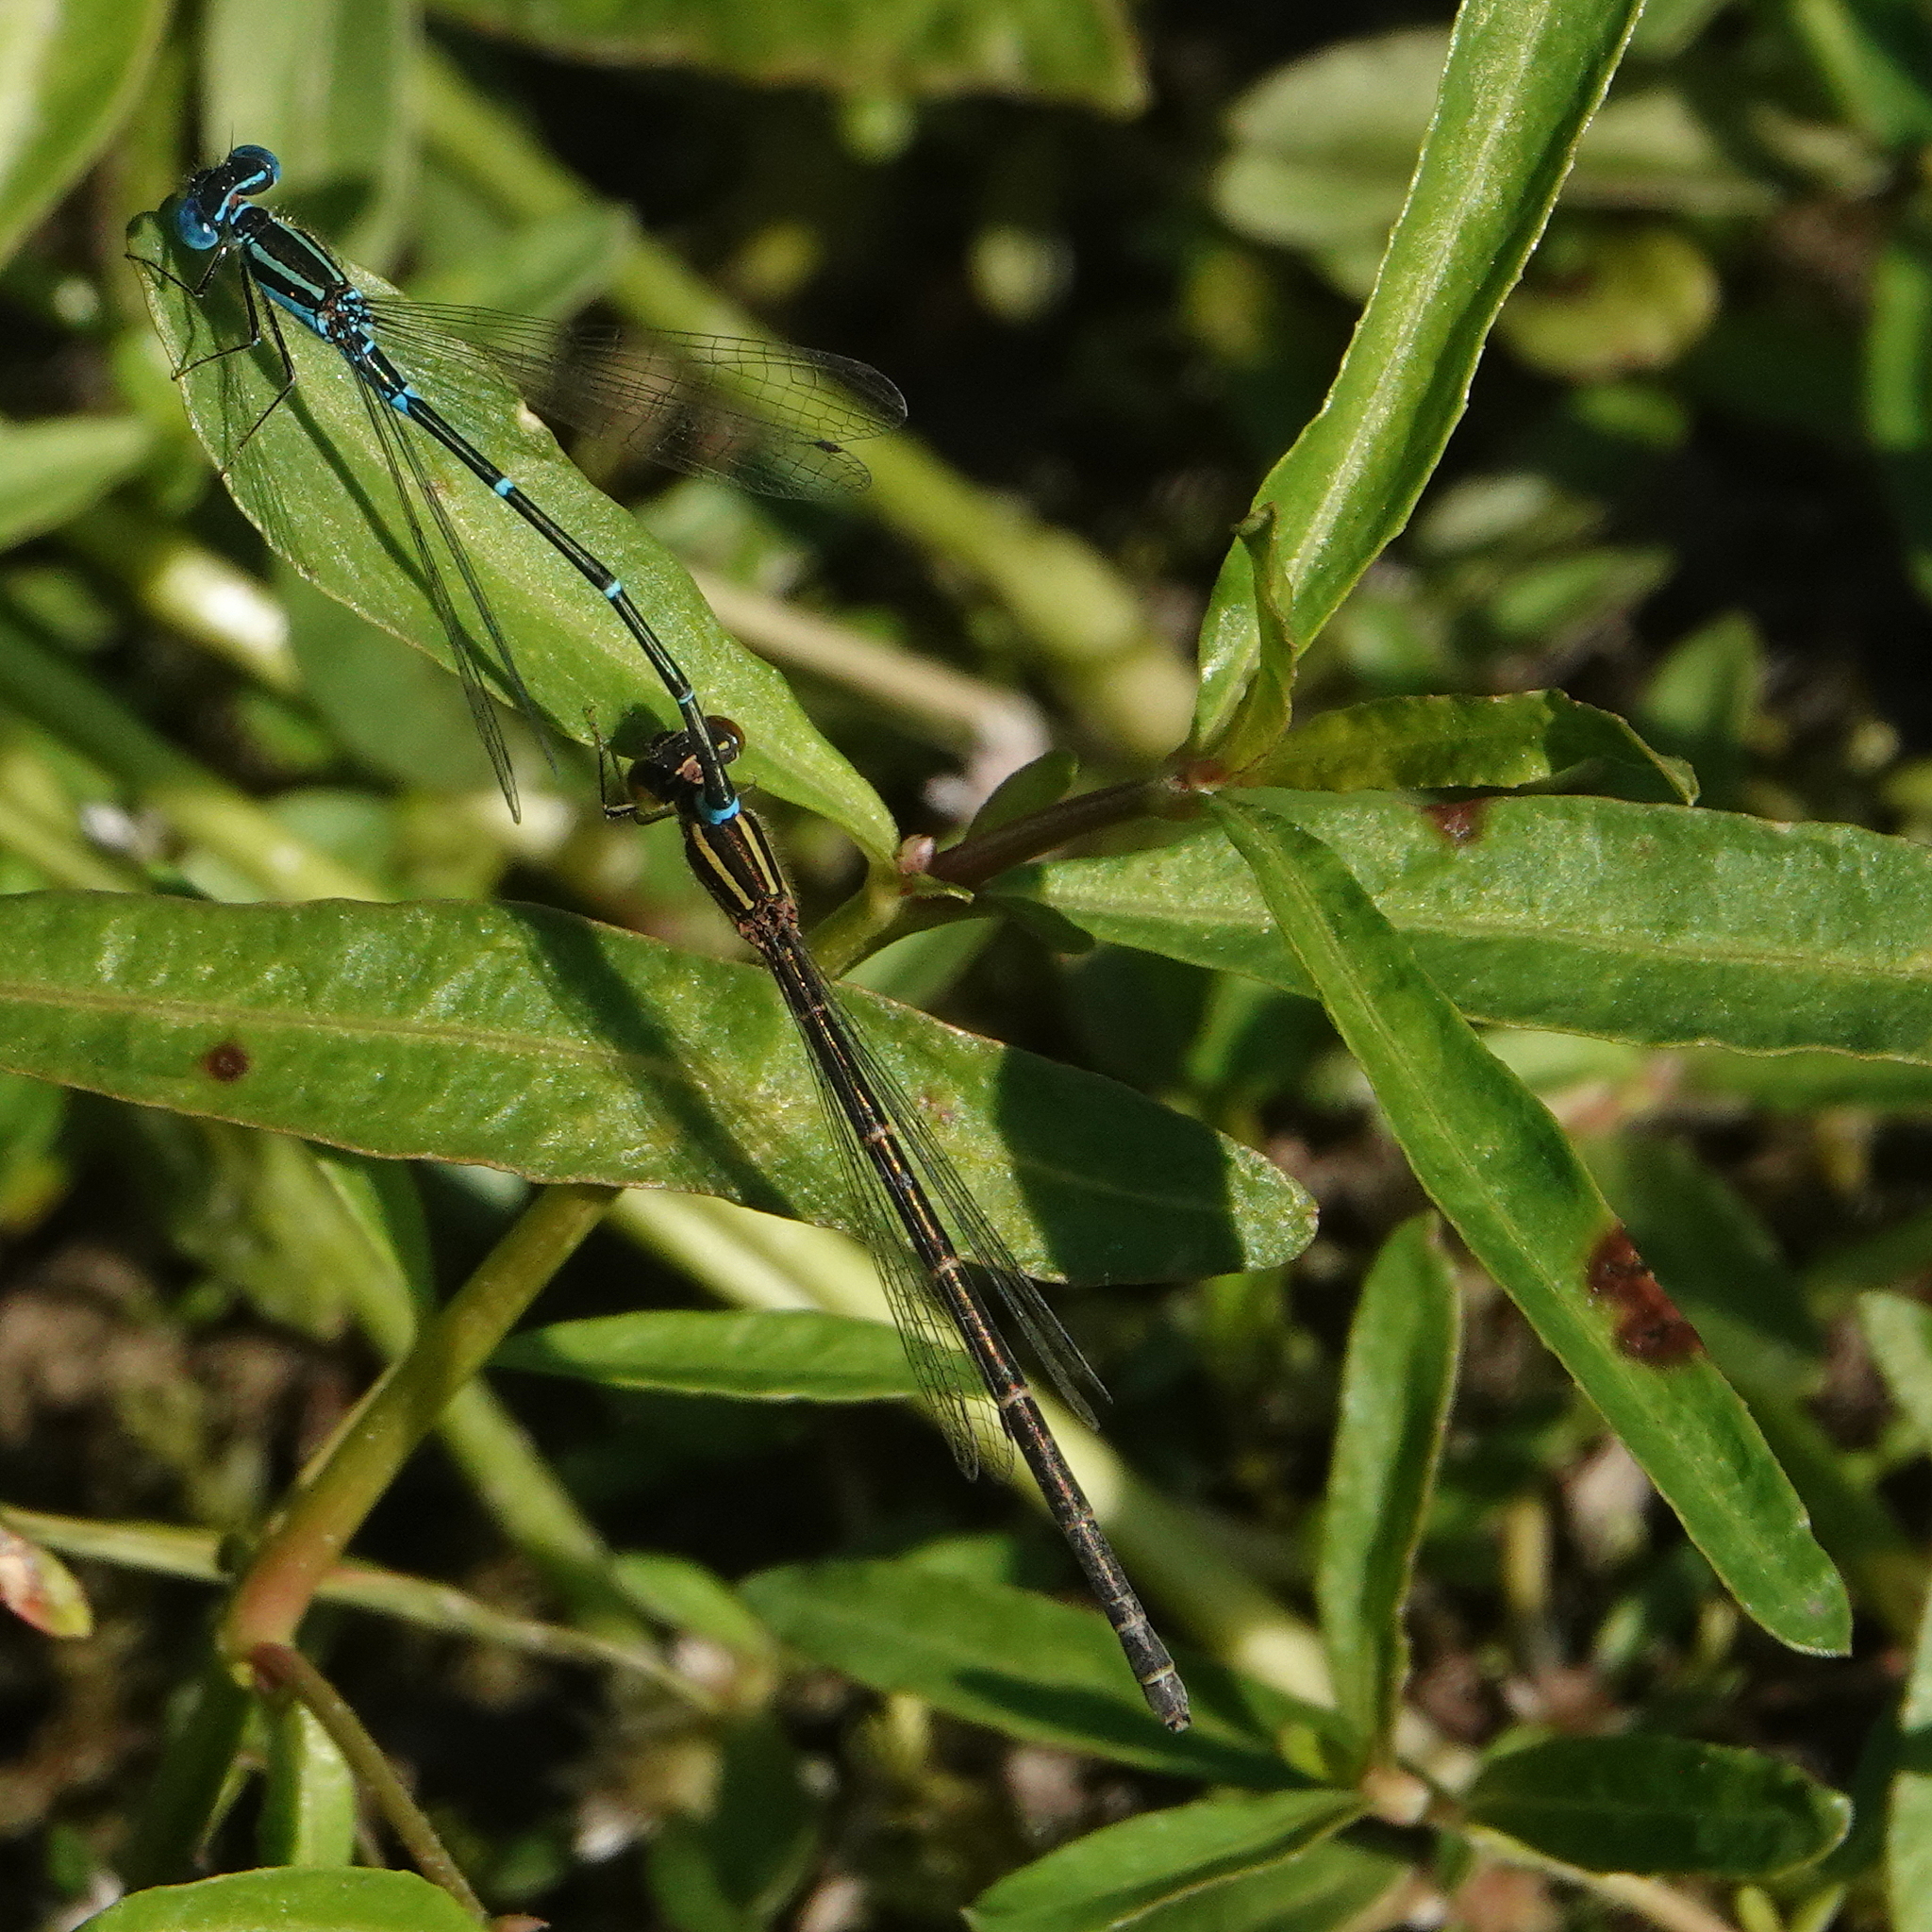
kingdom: Animalia
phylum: Arthropoda
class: Insecta
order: Odonata
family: Coenagrionidae
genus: Austroagrion
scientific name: Austroagrion watsoni
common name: Eastern billabongfly
